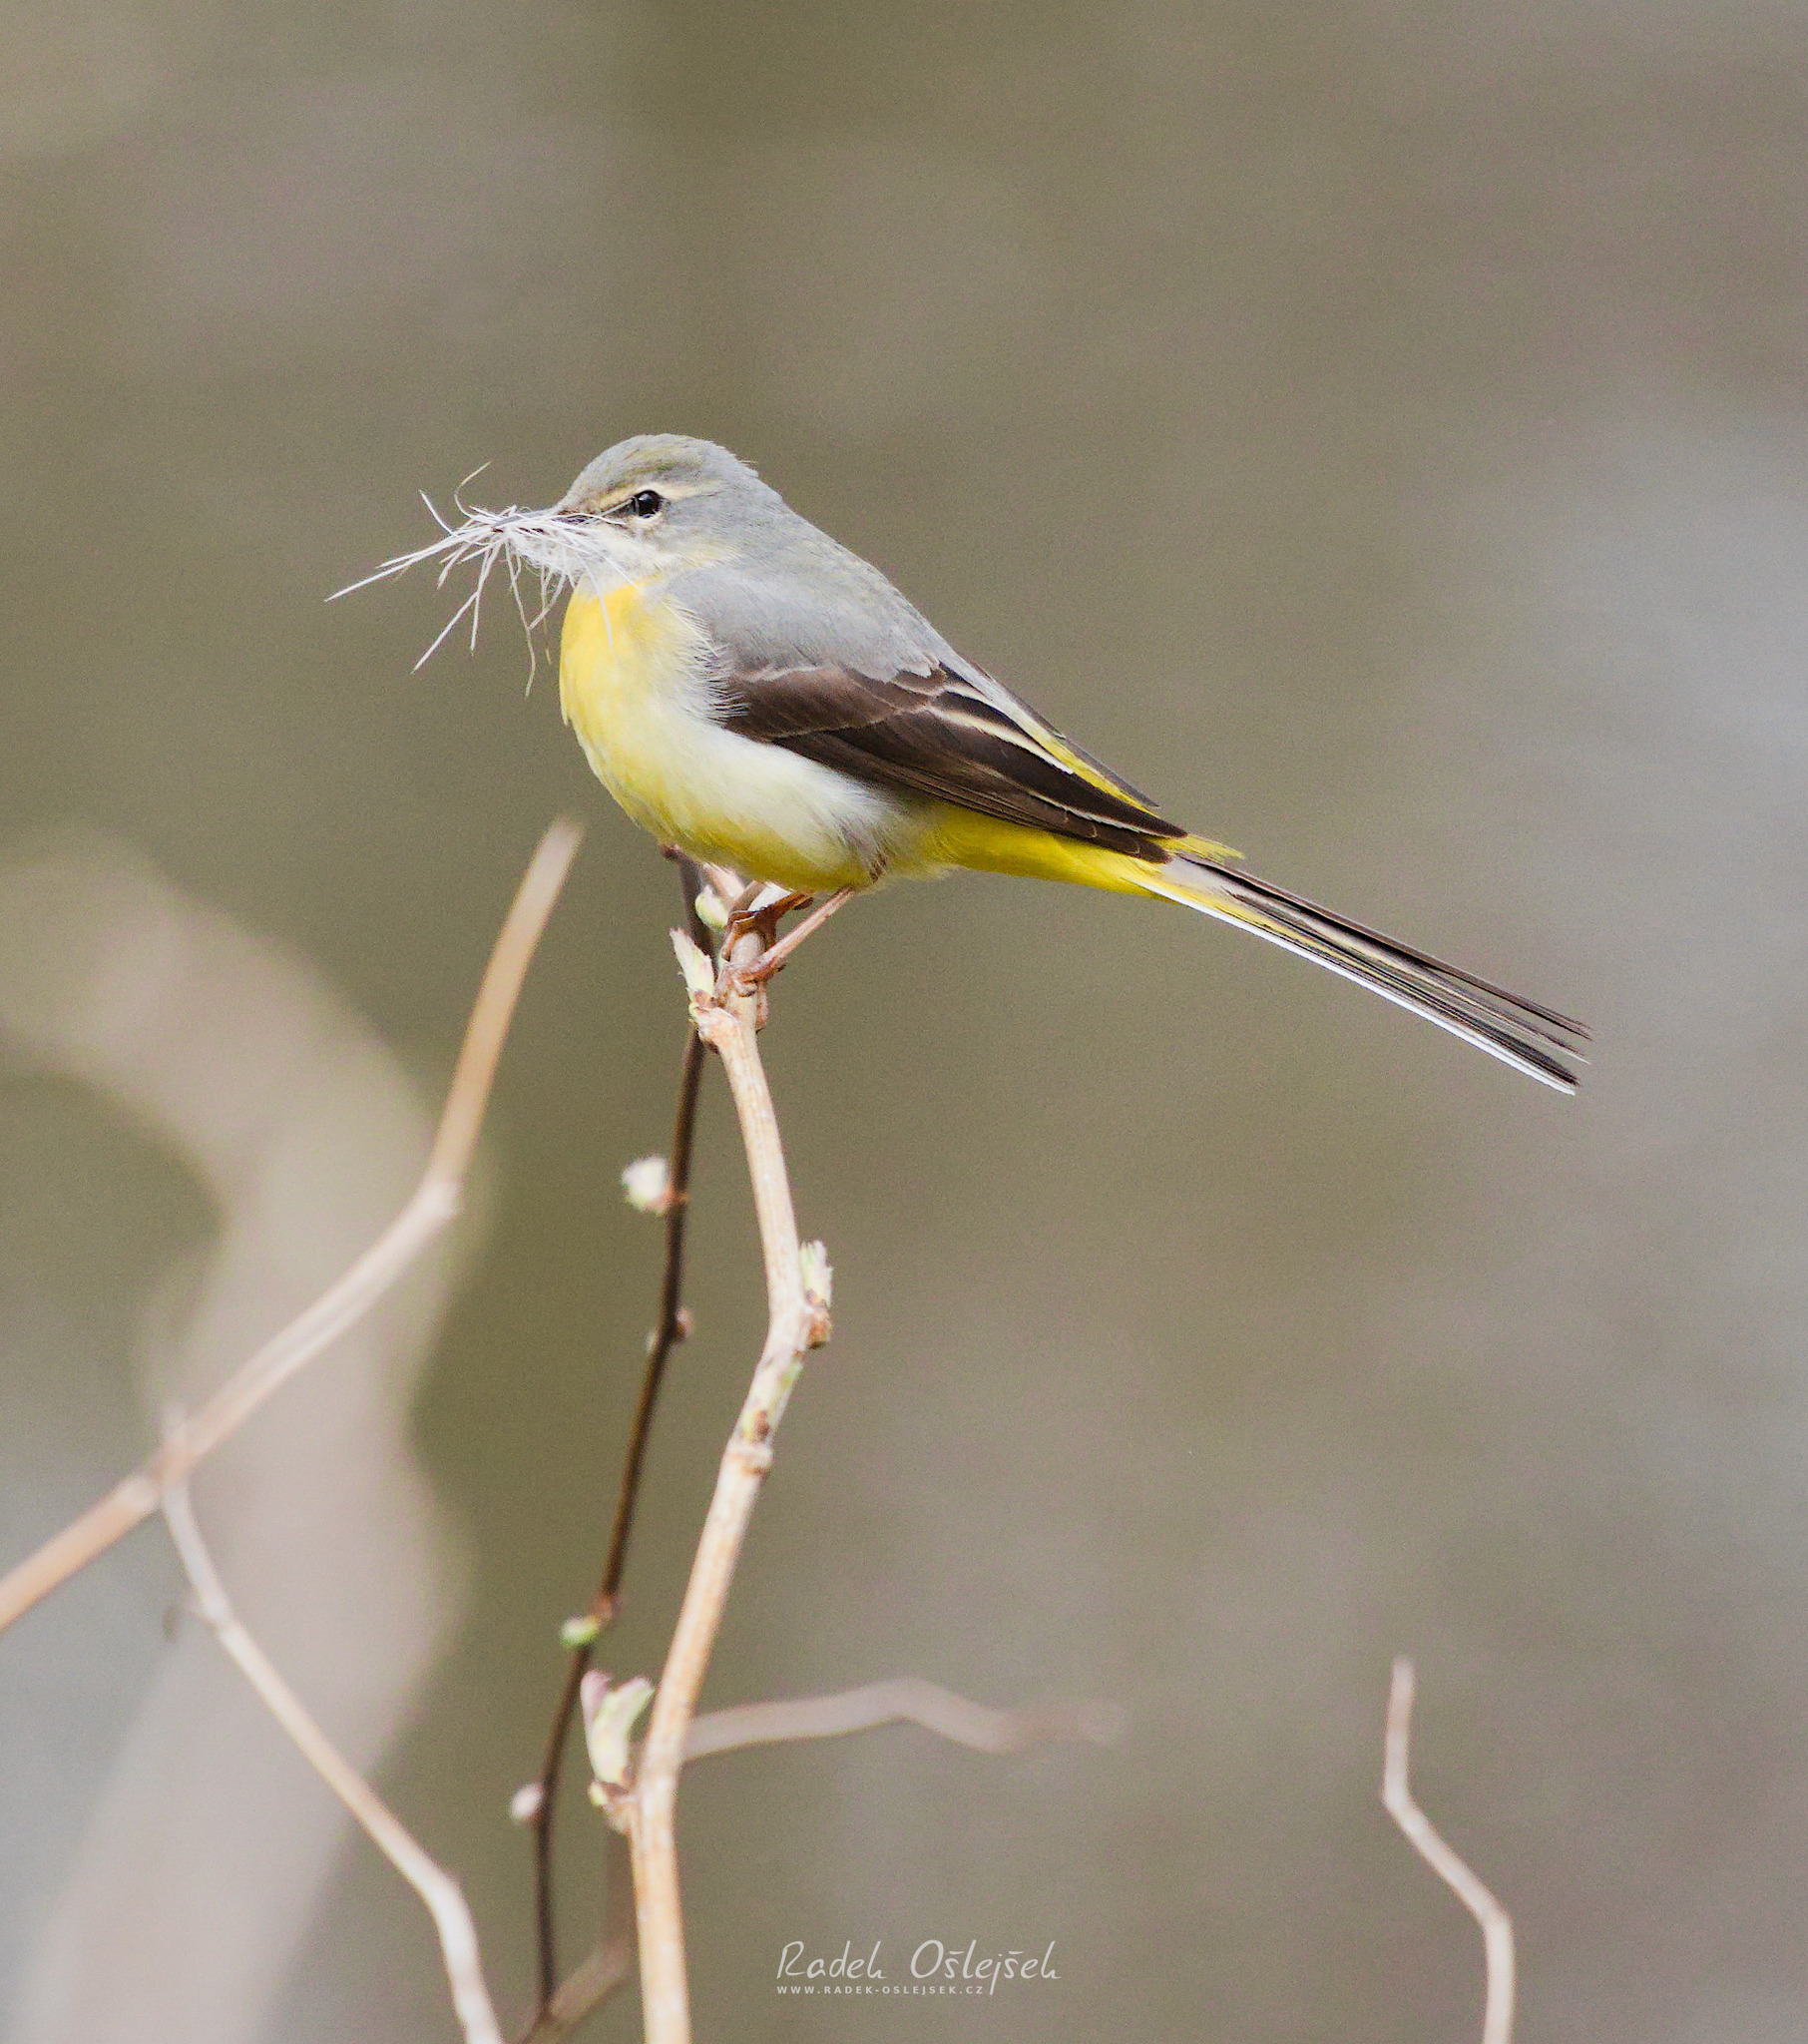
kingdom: Animalia
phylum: Chordata
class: Aves
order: Passeriformes
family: Motacillidae
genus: Motacilla
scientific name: Motacilla cinerea
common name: Grey wagtail
